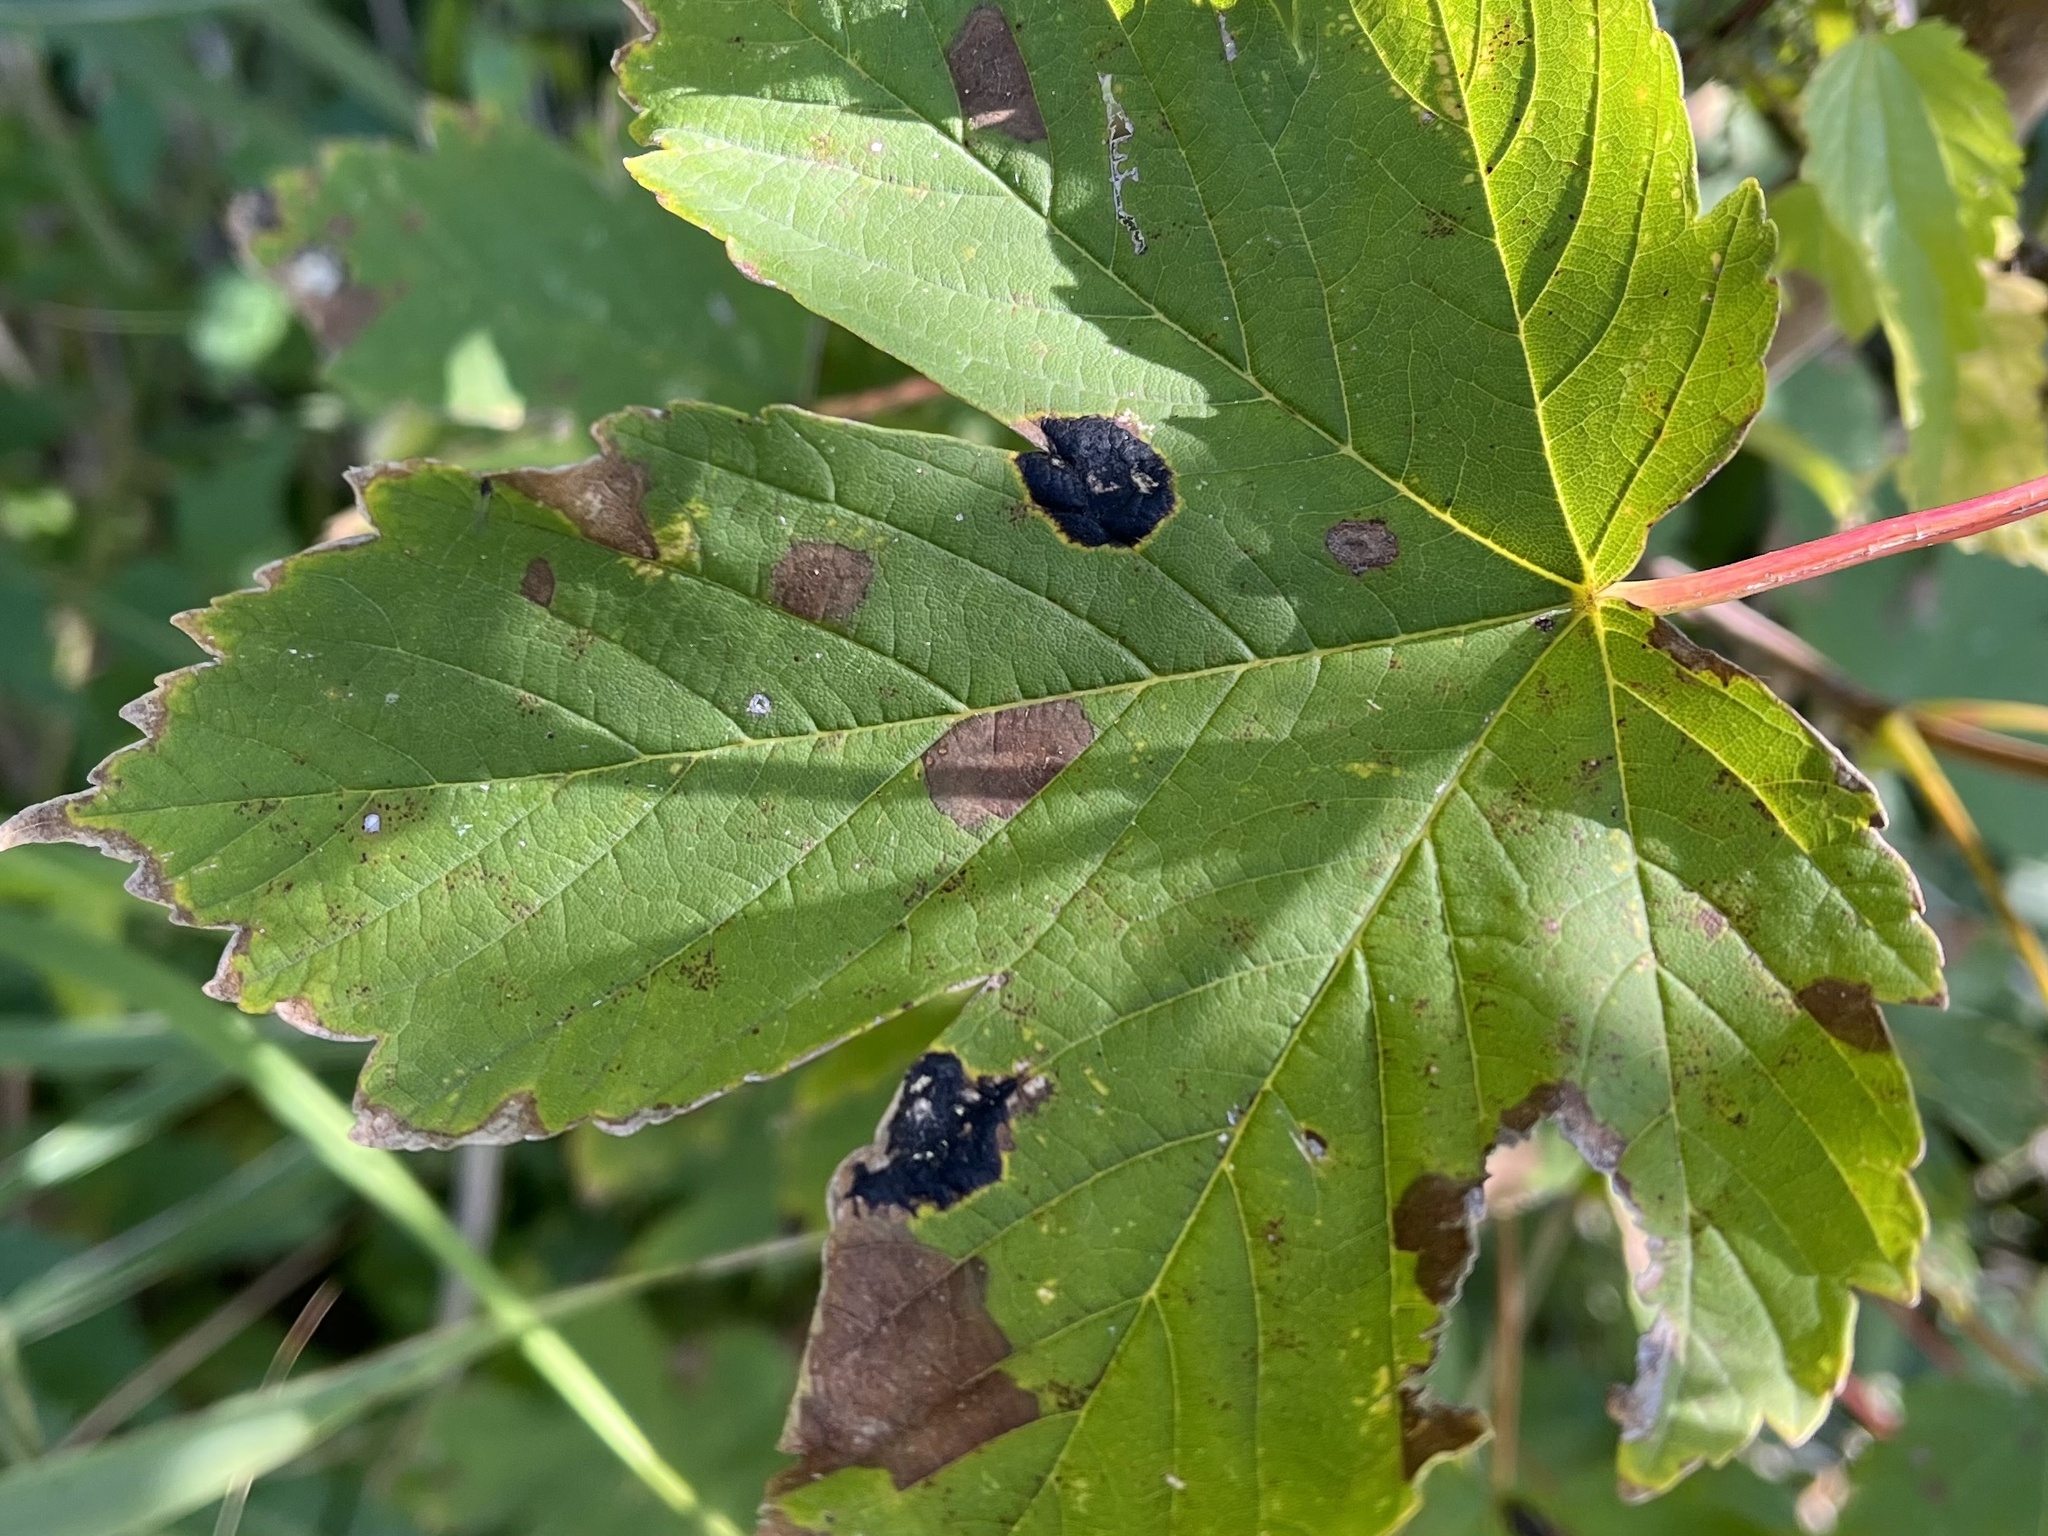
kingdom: Fungi
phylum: Ascomycota
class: Leotiomycetes
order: Rhytismatales
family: Rhytismataceae
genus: Rhytisma
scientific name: Rhytisma acerinum
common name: European tar spot
